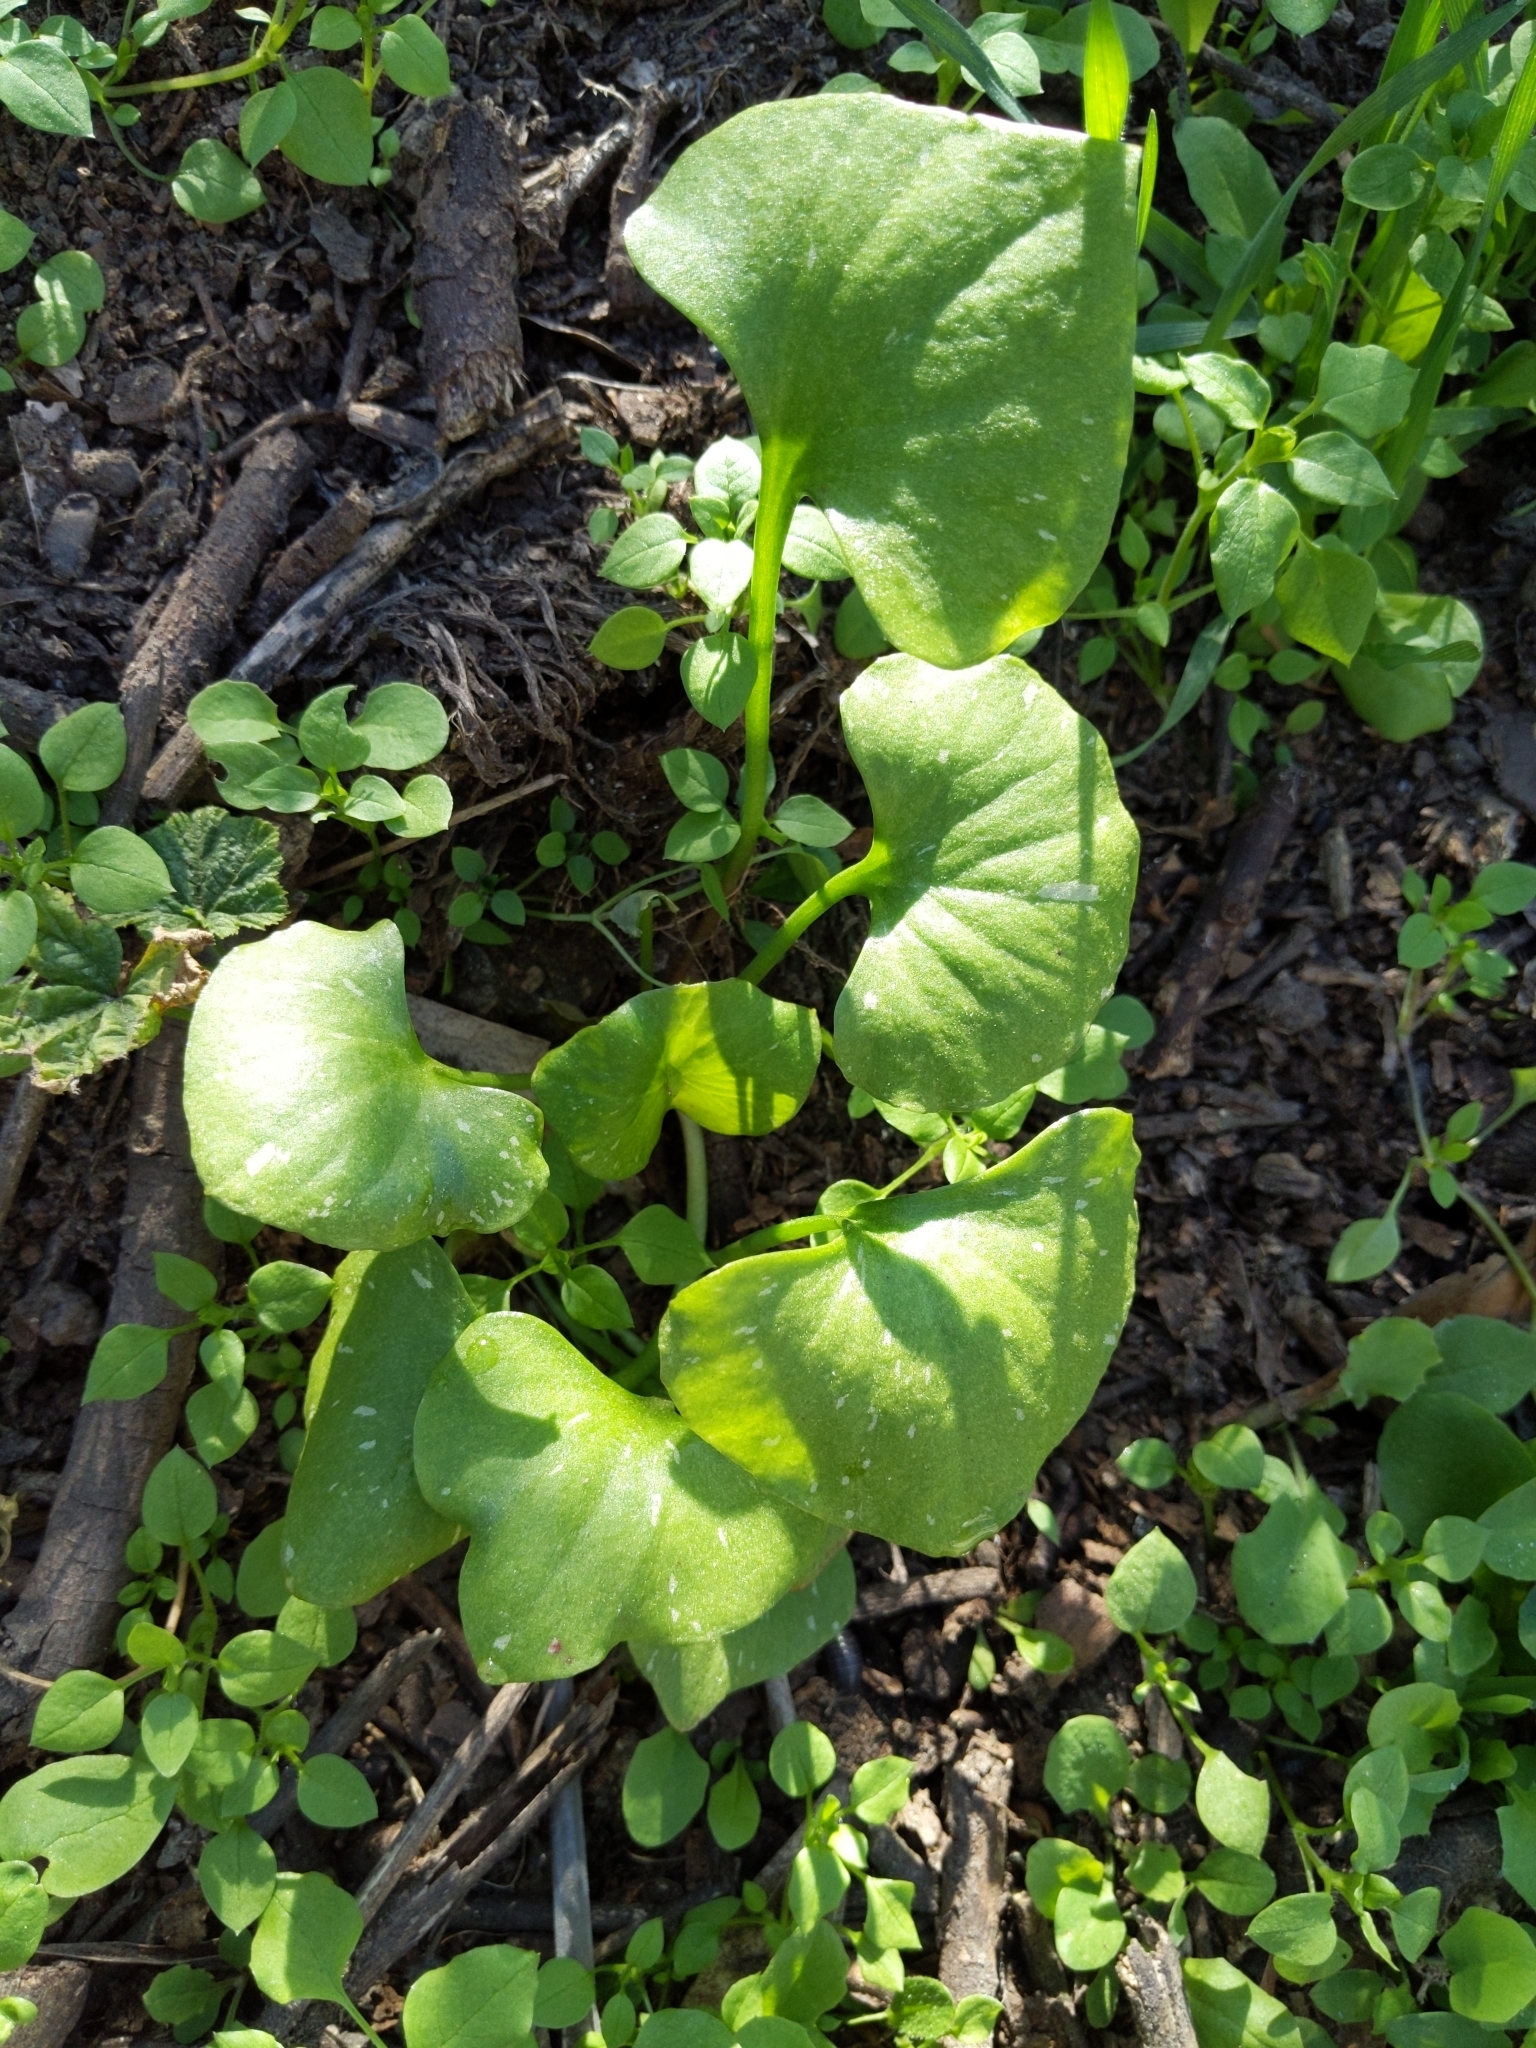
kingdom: Plantae
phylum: Tracheophyta
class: Magnoliopsida
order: Caryophyllales
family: Montiaceae
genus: Claytonia
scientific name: Claytonia perfoliata
